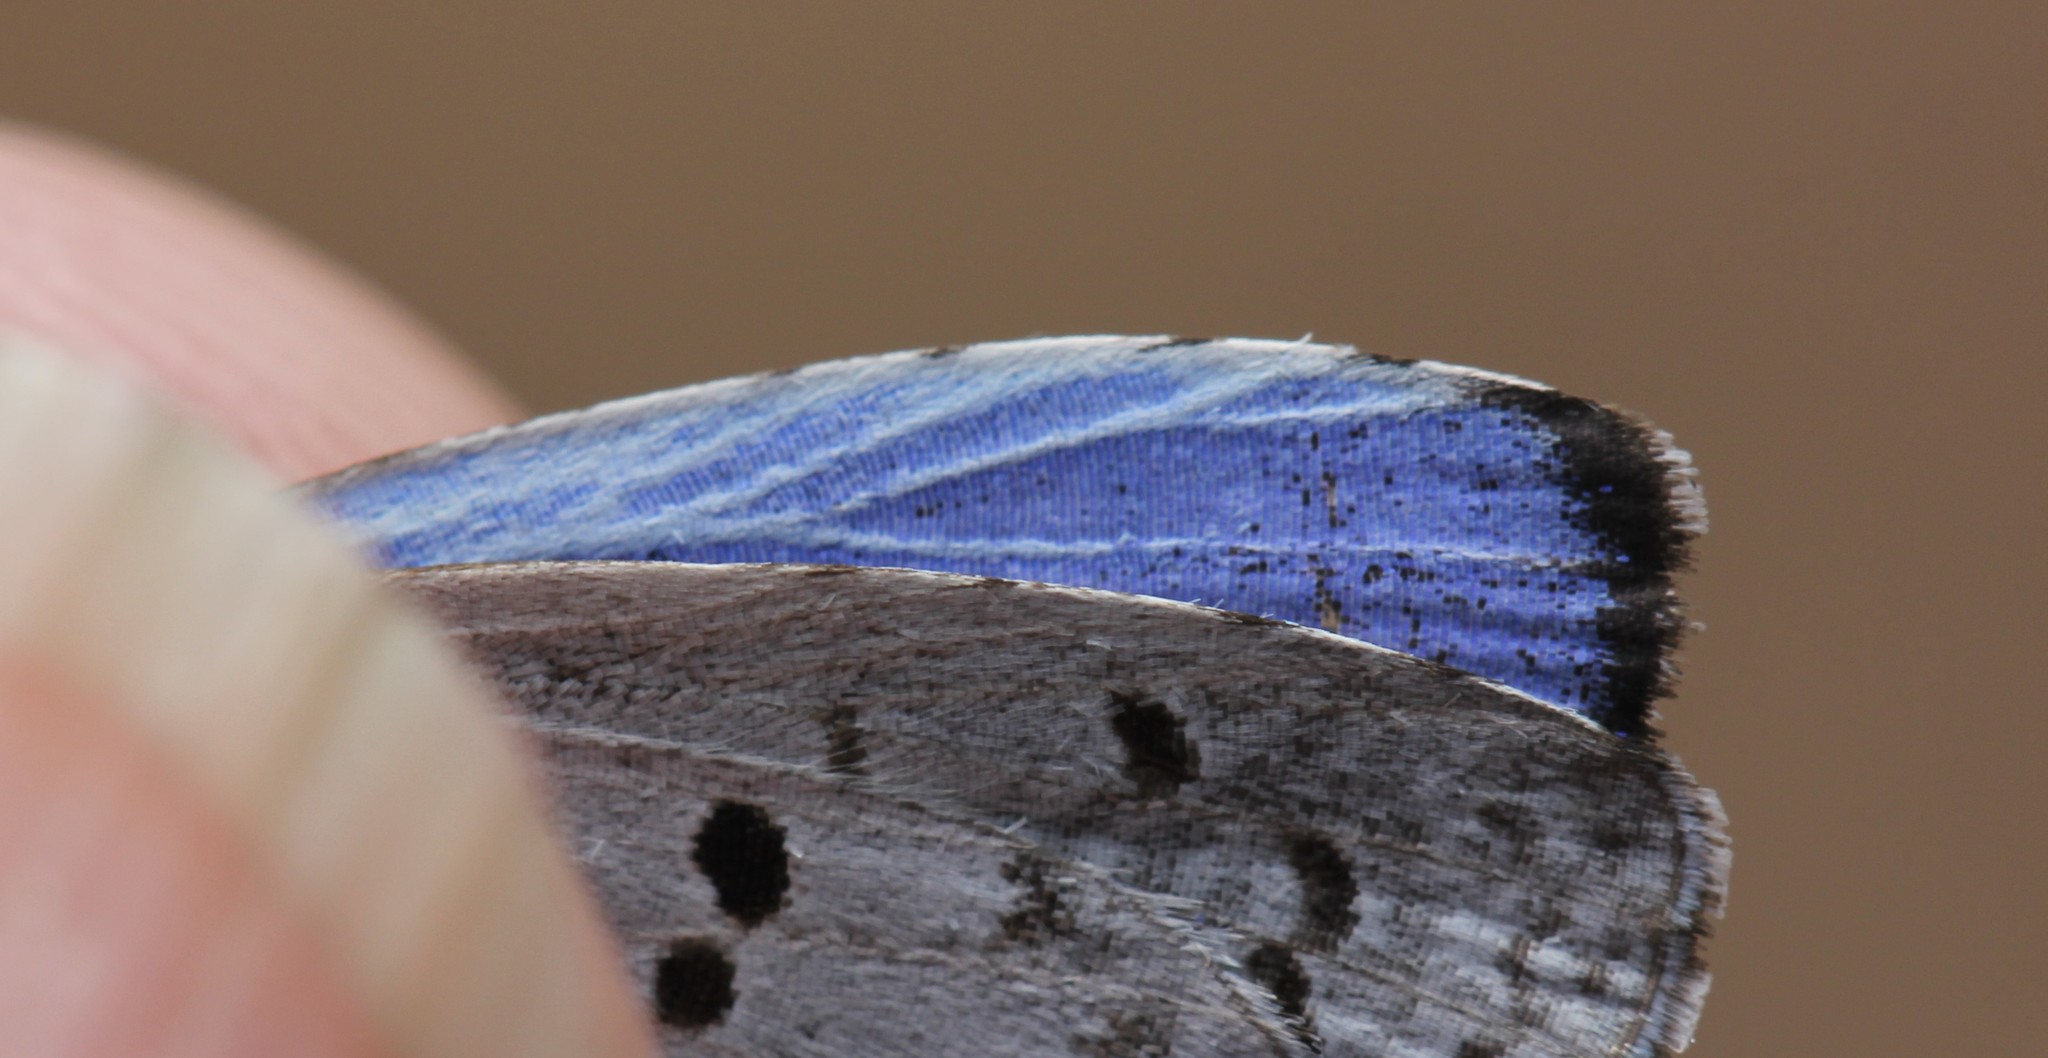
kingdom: Animalia
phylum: Arthropoda
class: Insecta
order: Lepidoptera
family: Lycaenidae
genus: Cyaniris
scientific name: Cyaniris neglecta
